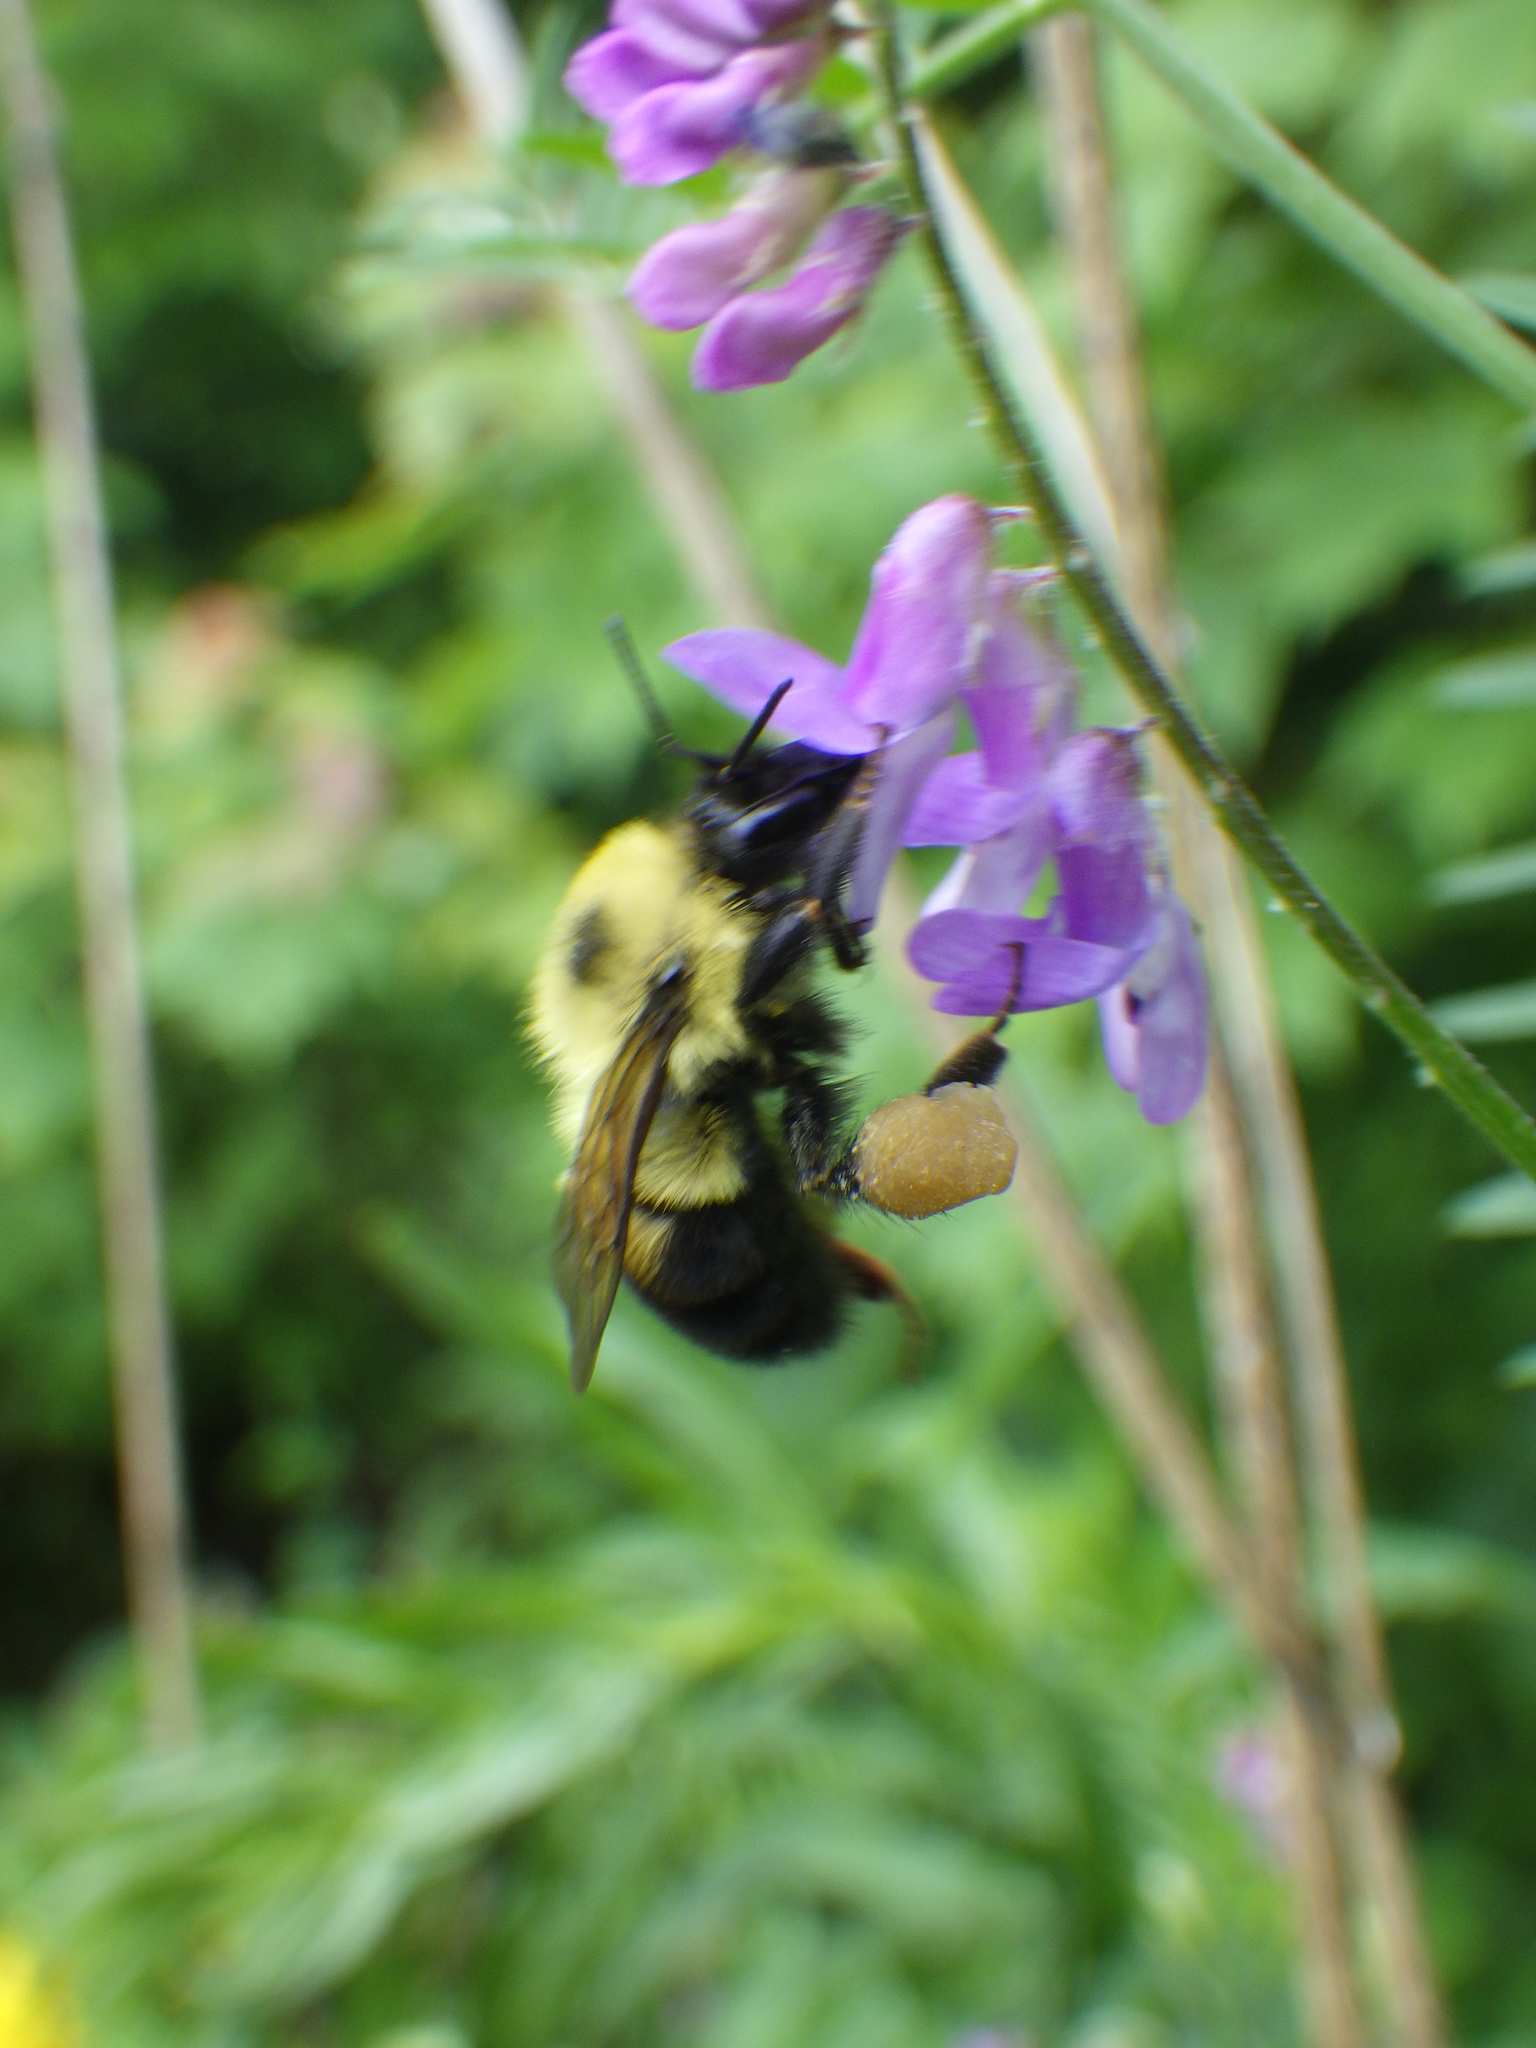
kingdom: Animalia
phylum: Arthropoda
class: Insecta
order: Hymenoptera
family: Apidae
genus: Bombus
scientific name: Bombus bimaculatus
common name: Two-spotted bumble bee
